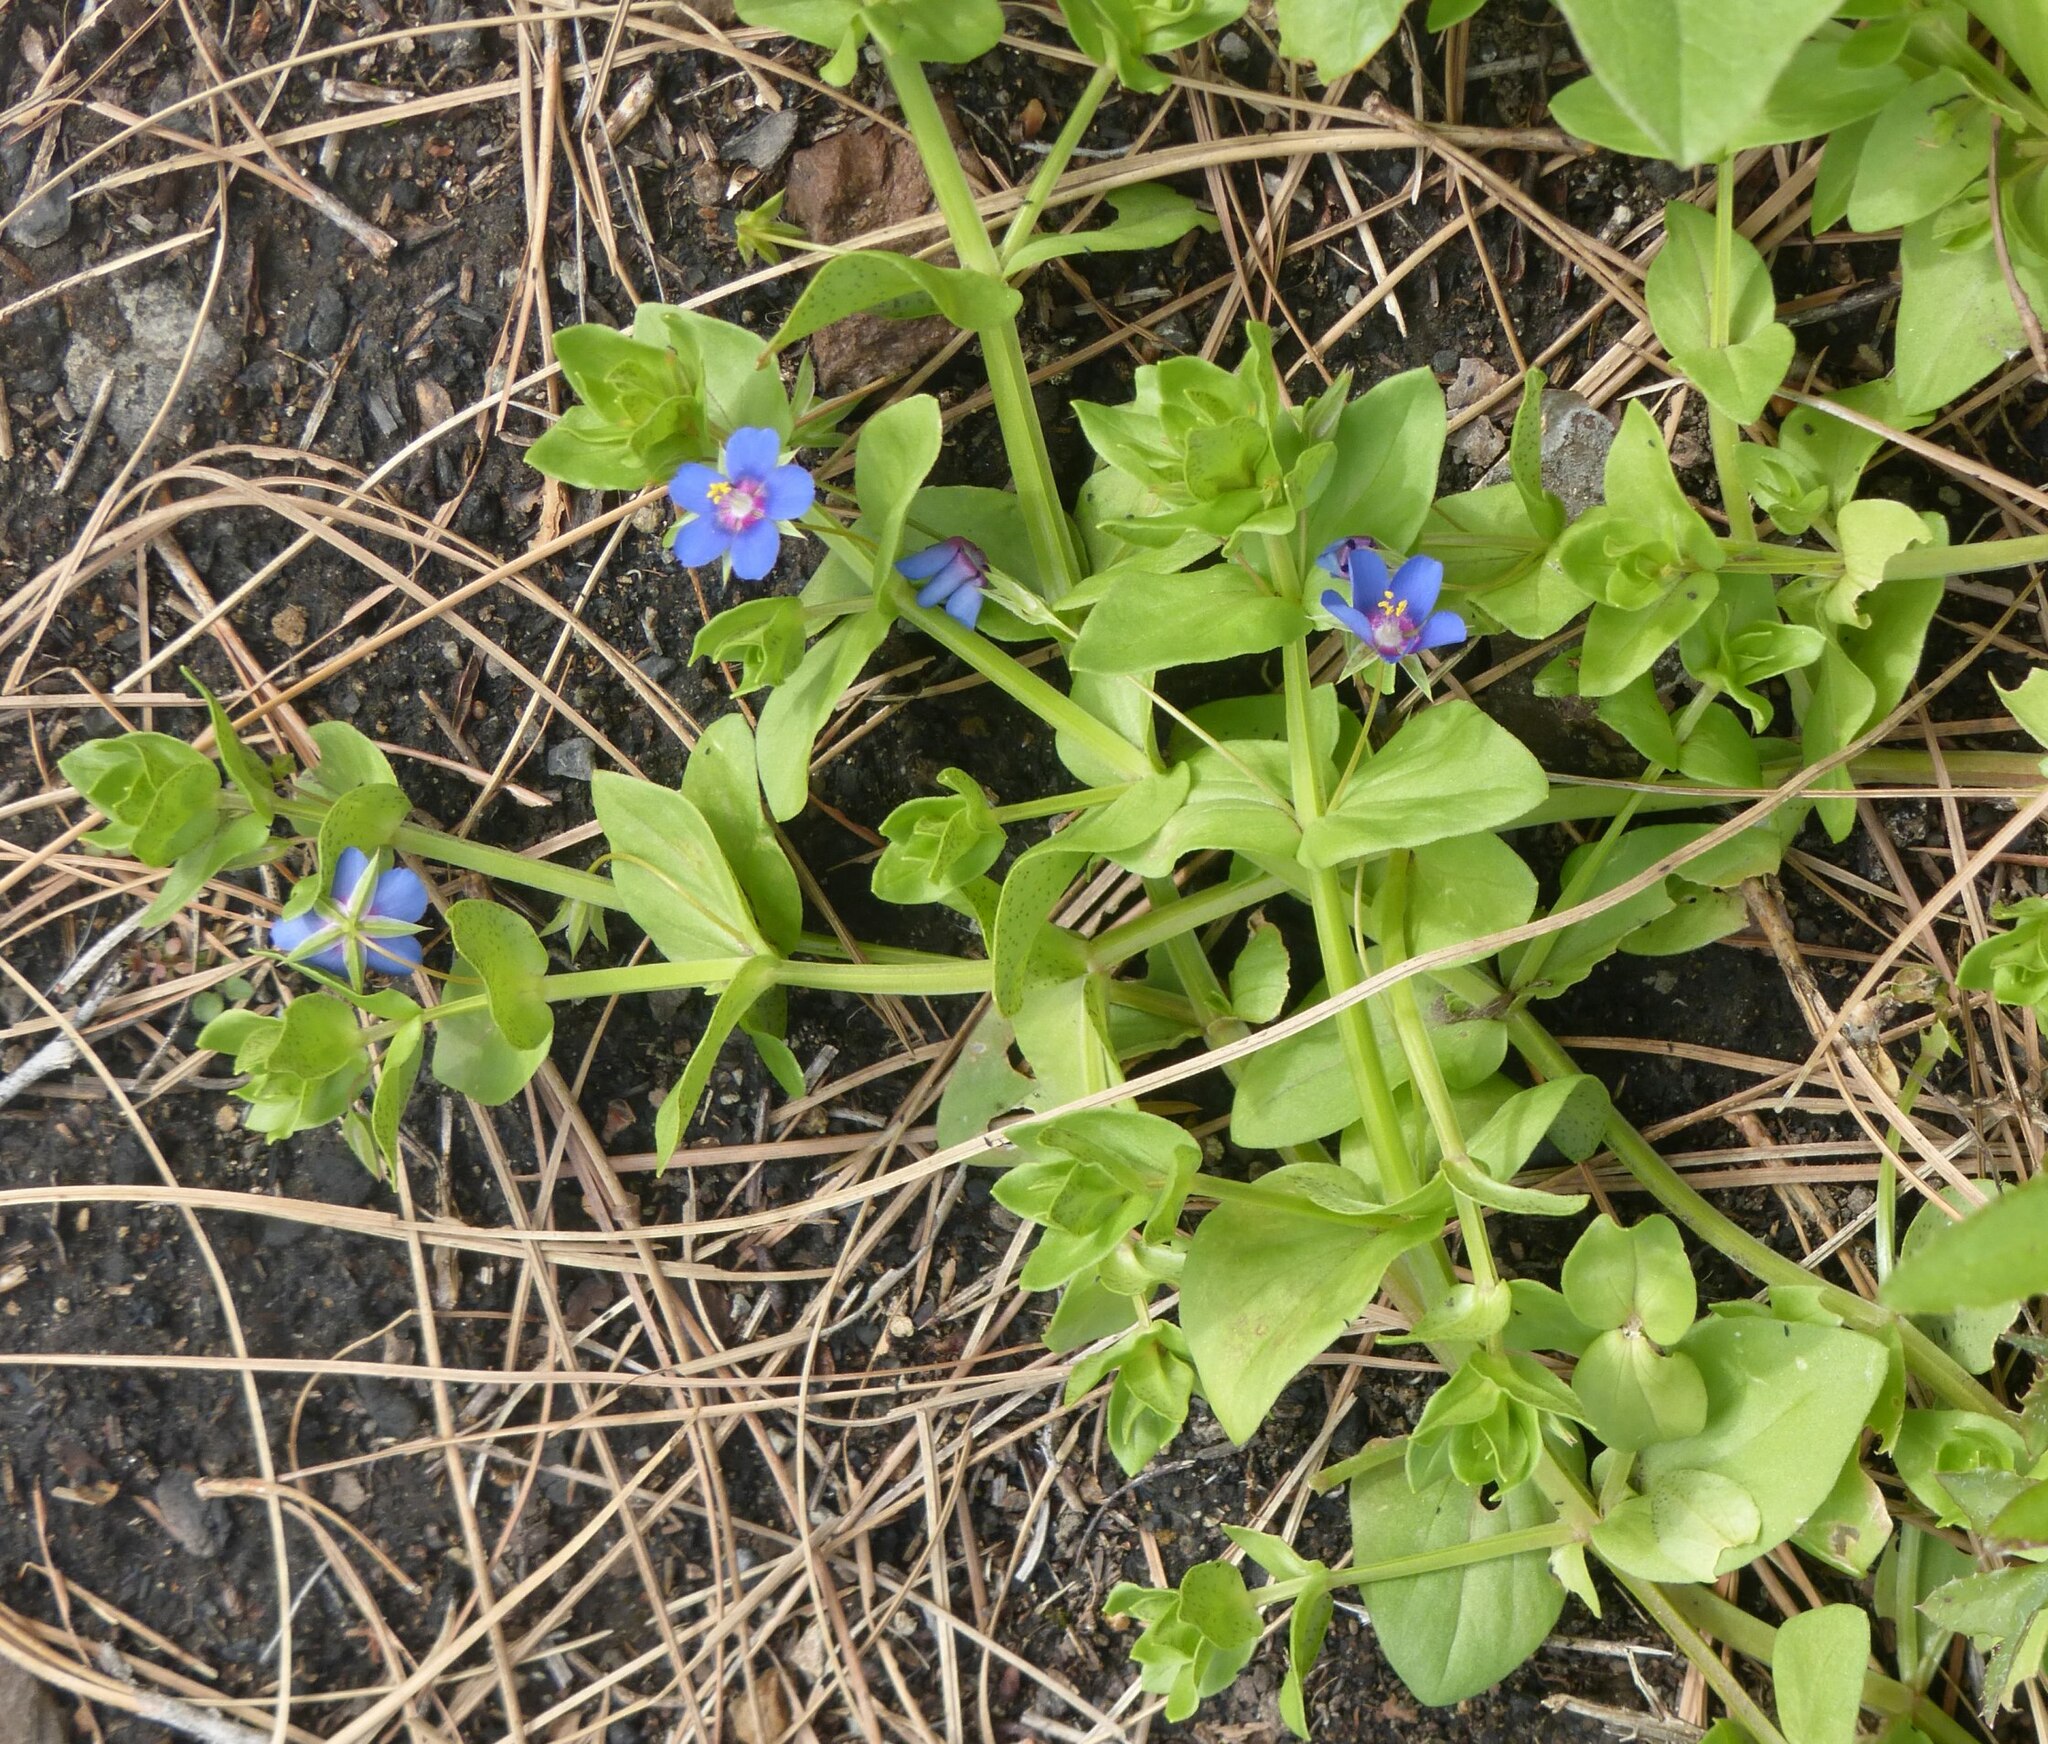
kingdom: Plantae
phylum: Tracheophyta
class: Magnoliopsida
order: Ericales
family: Primulaceae
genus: Lysimachia
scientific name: Lysimachia loeflingii
